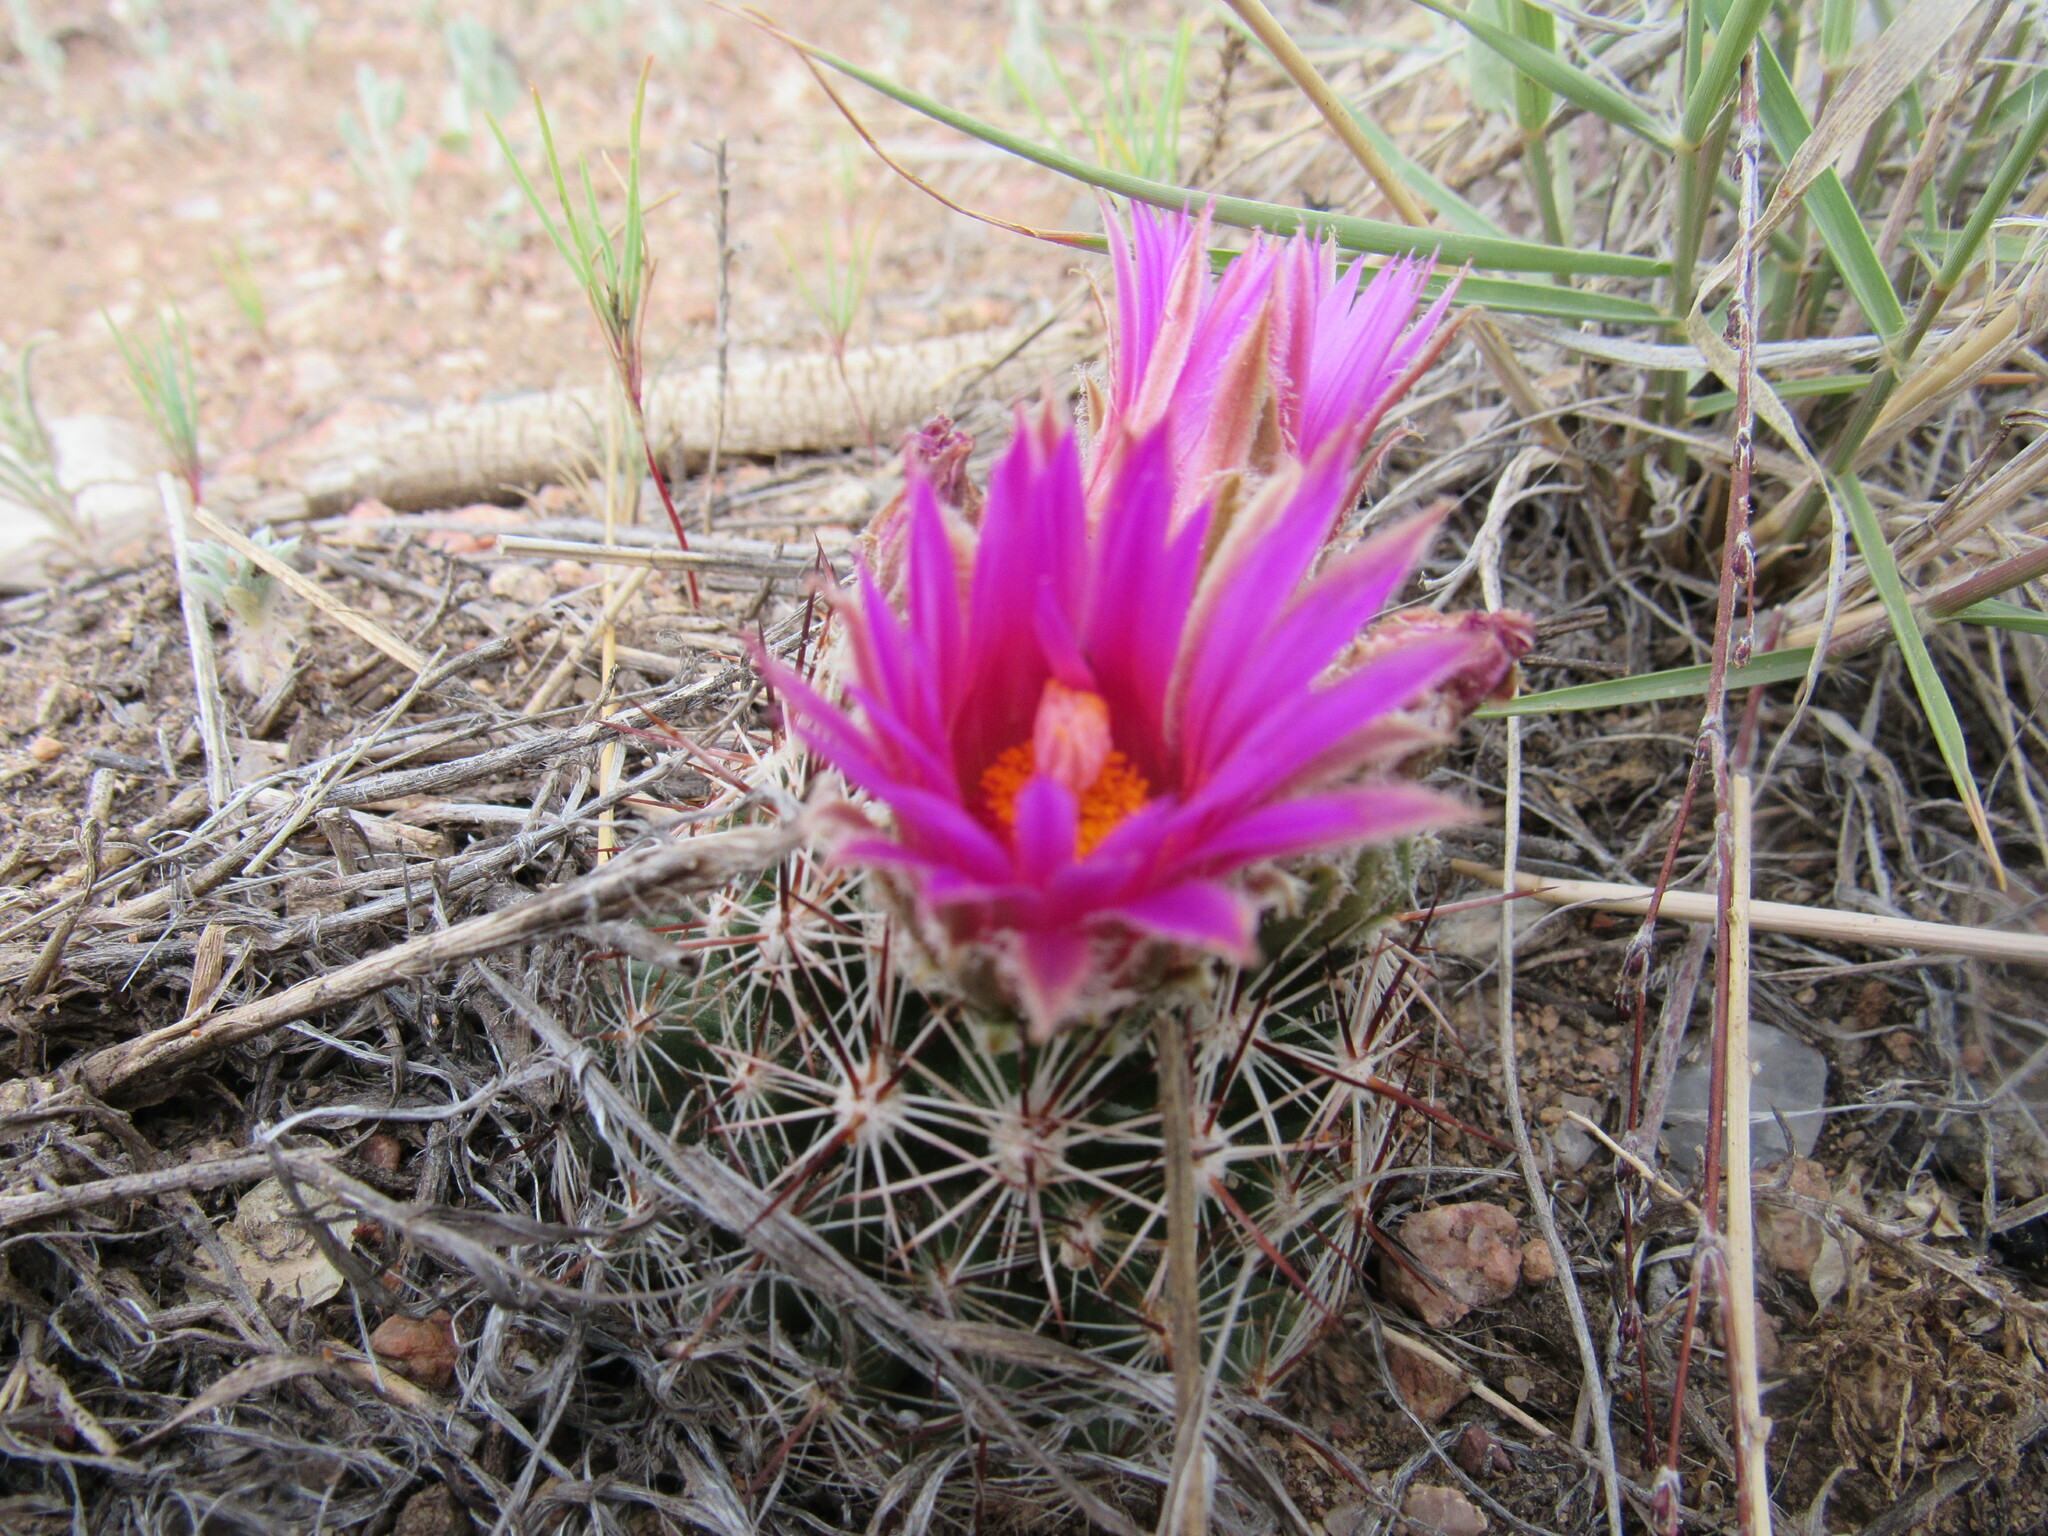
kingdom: Plantae
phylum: Tracheophyta
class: Magnoliopsida
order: Caryophyllales
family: Cactaceae
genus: Pelecyphora
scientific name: Pelecyphora vivipara
